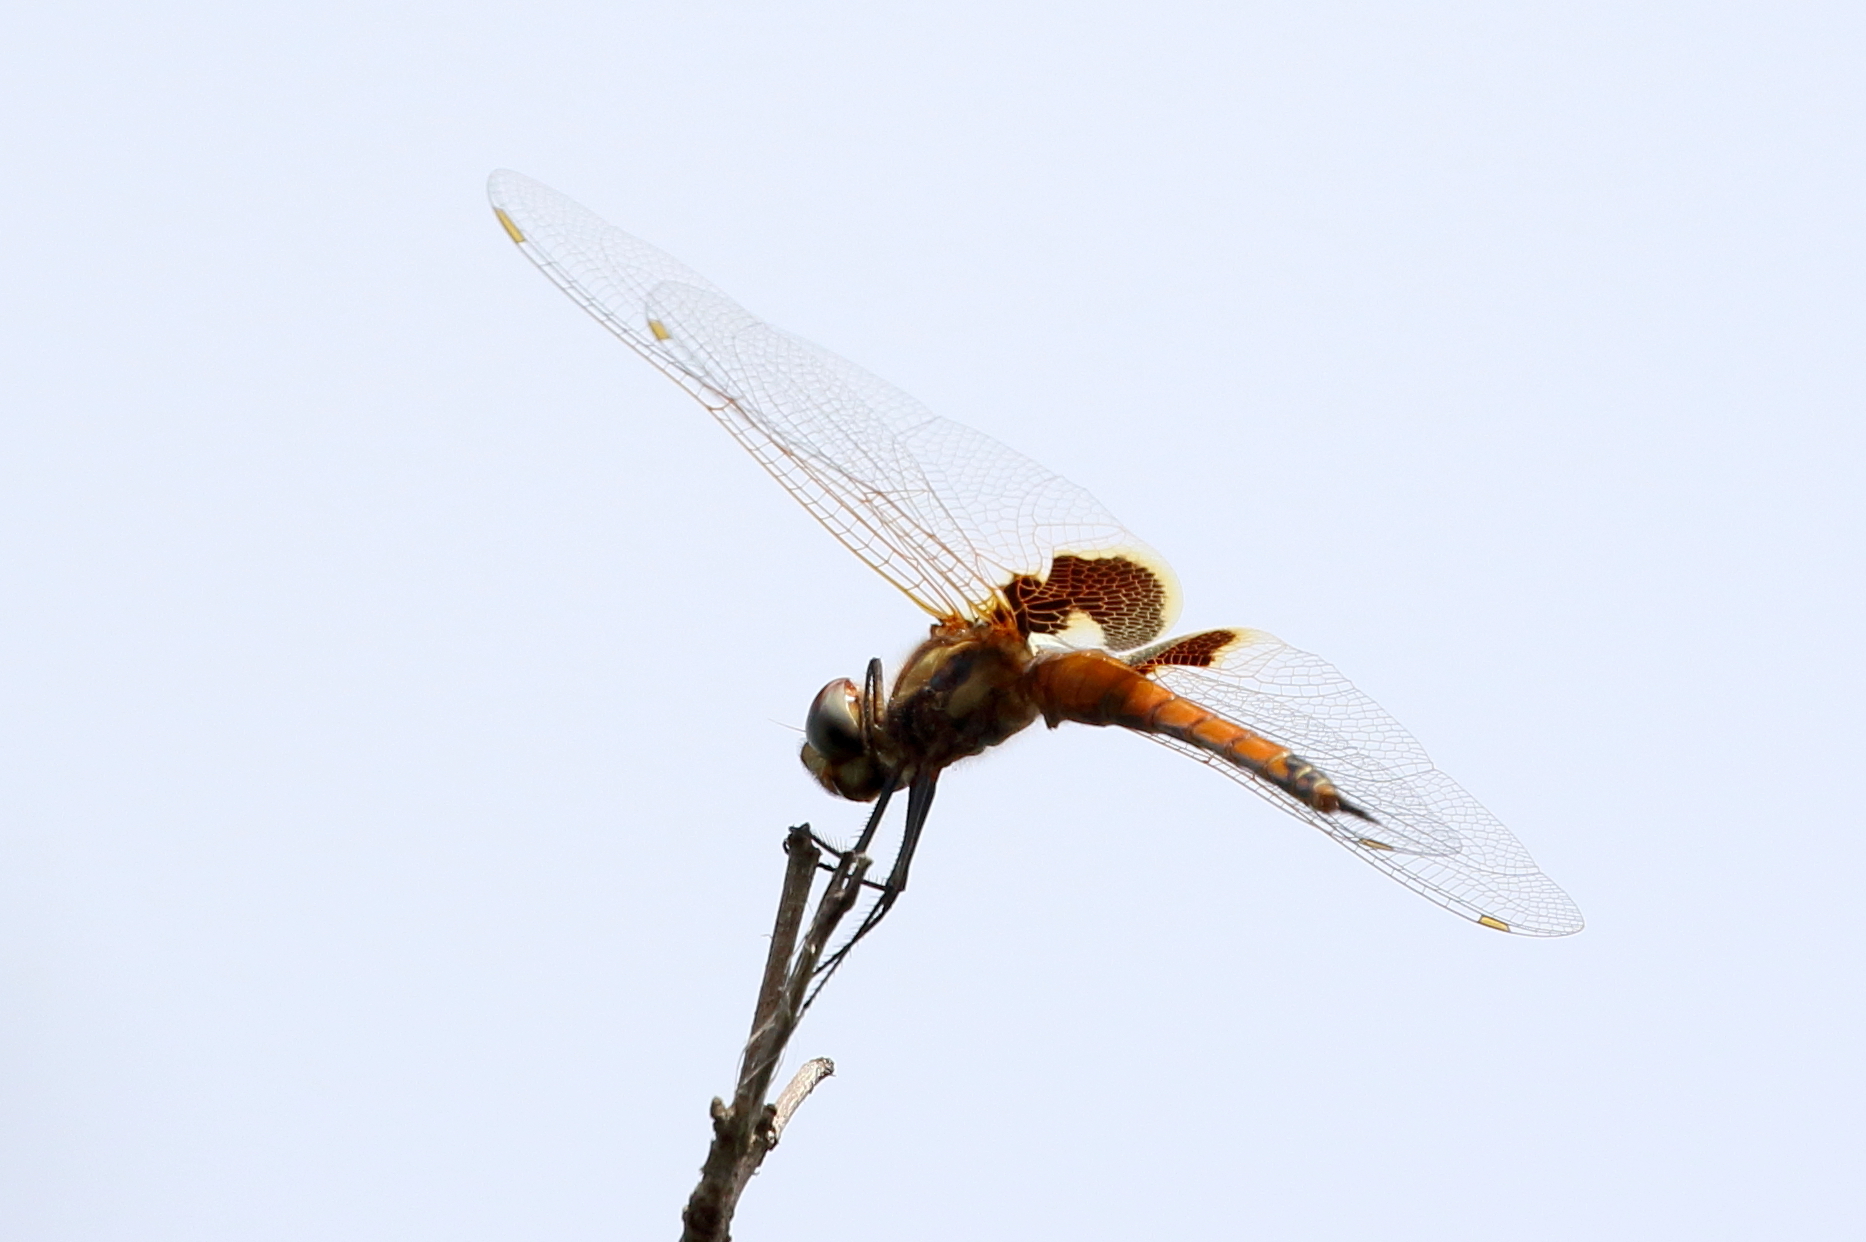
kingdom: Animalia
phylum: Arthropoda
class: Insecta
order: Odonata
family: Libellulidae
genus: Tramea
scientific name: Tramea loewii
